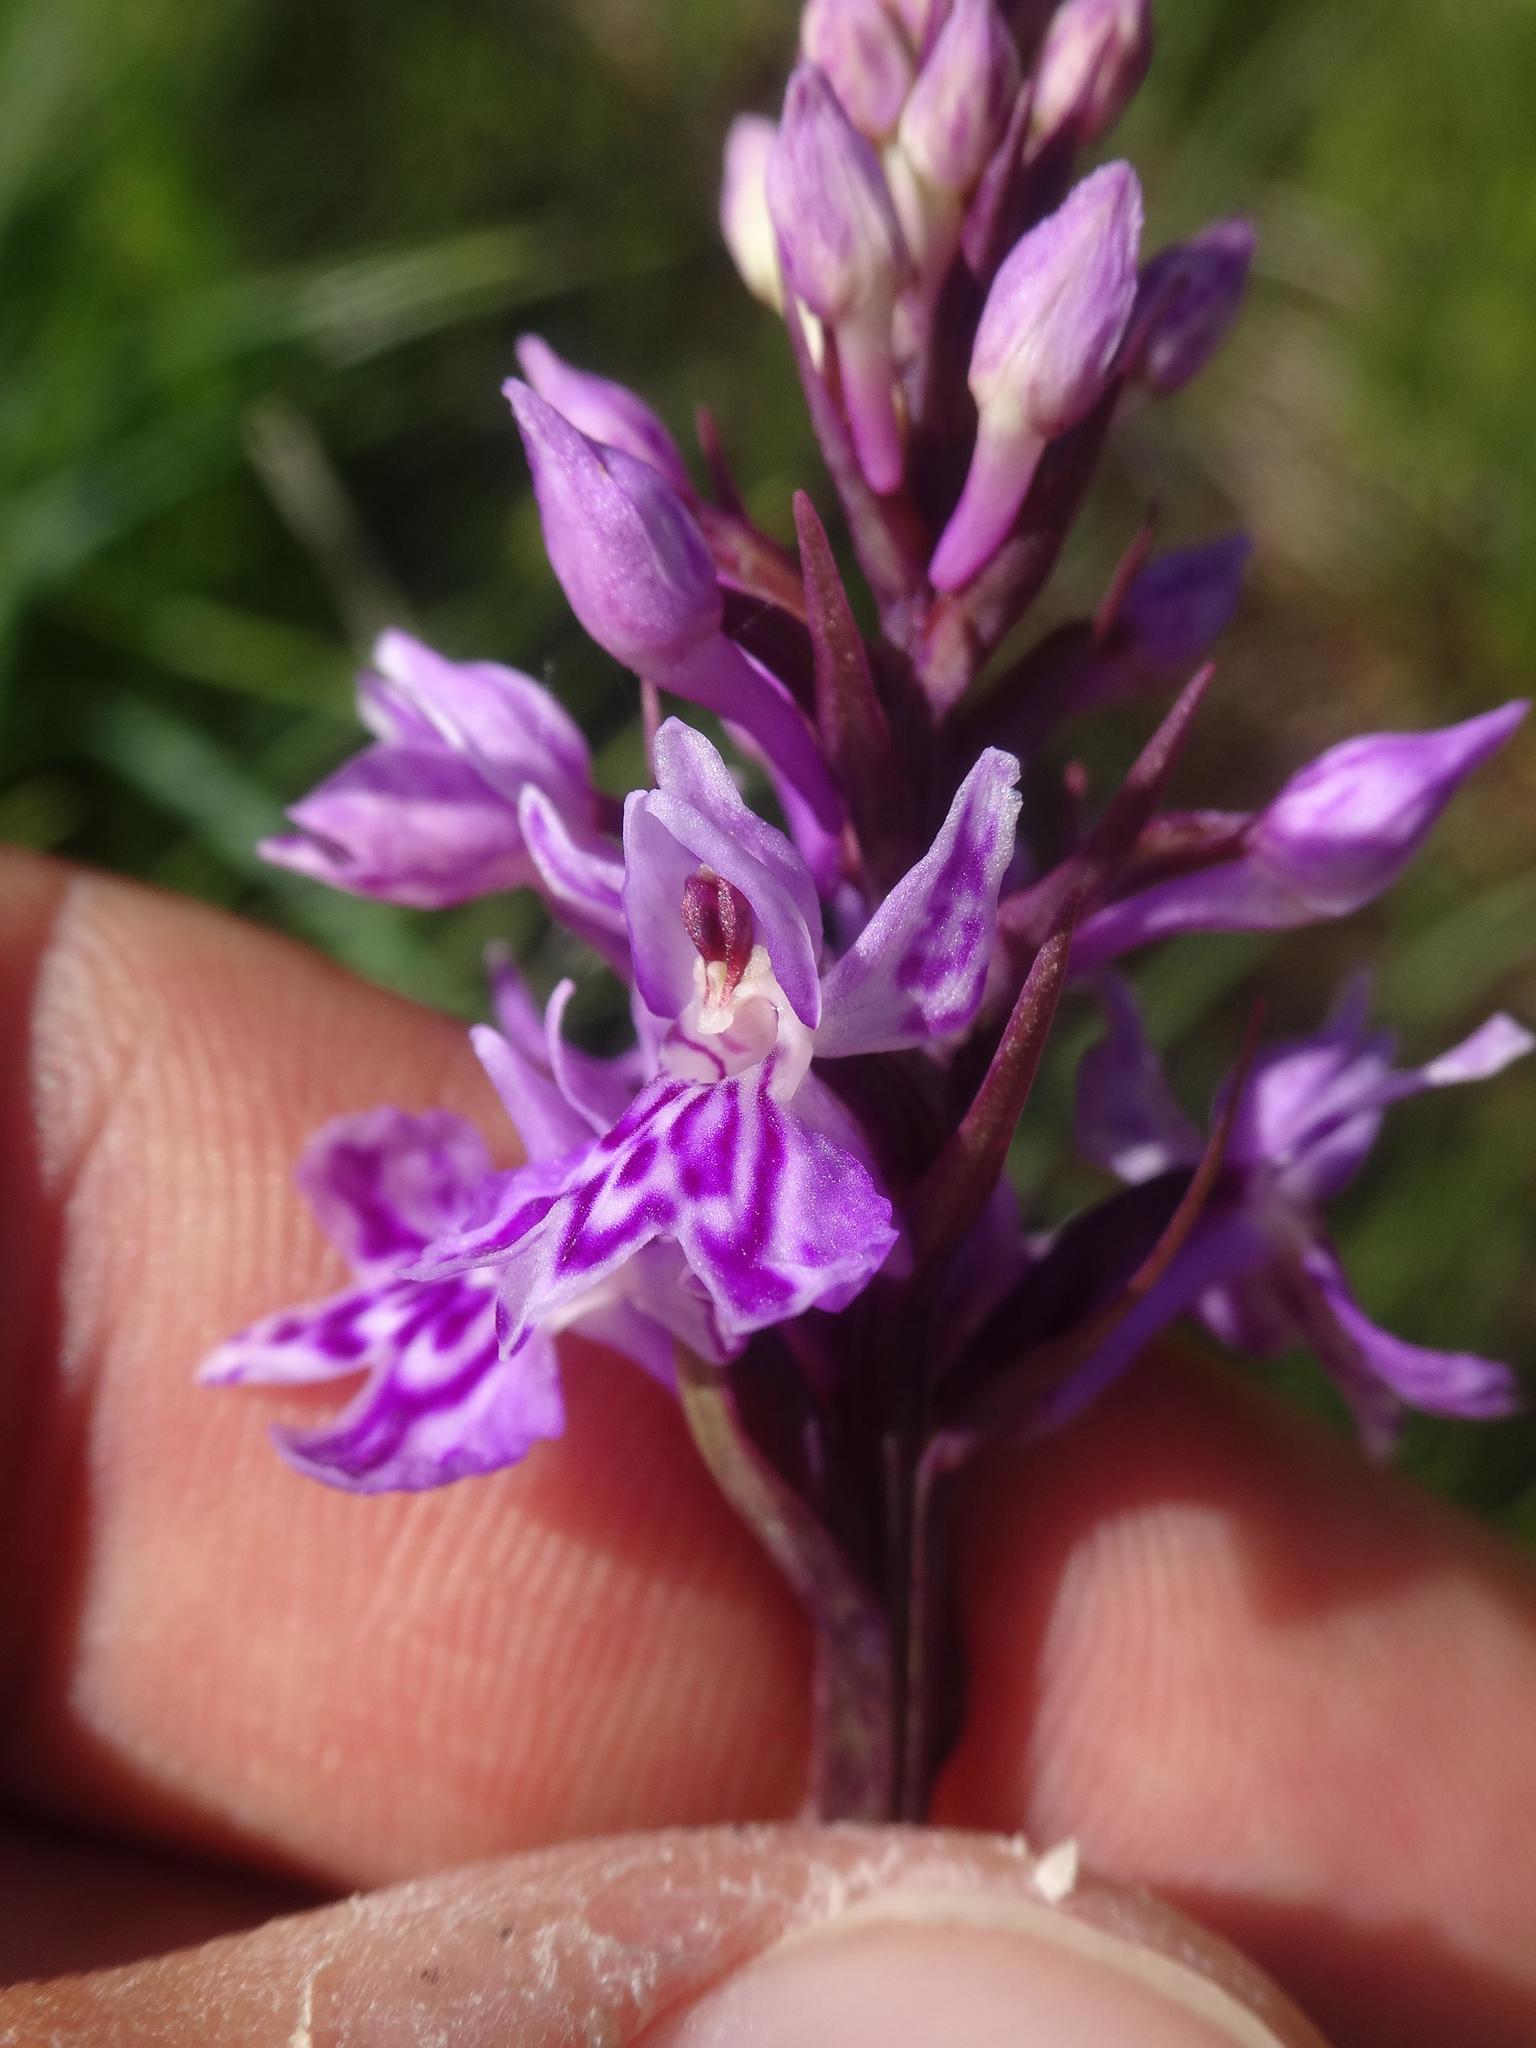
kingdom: Plantae
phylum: Tracheophyta
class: Liliopsida
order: Asparagales
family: Orchidaceae
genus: Dactylorhiza
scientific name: Dactylorhiza maculata
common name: Heath spotted-orchid
